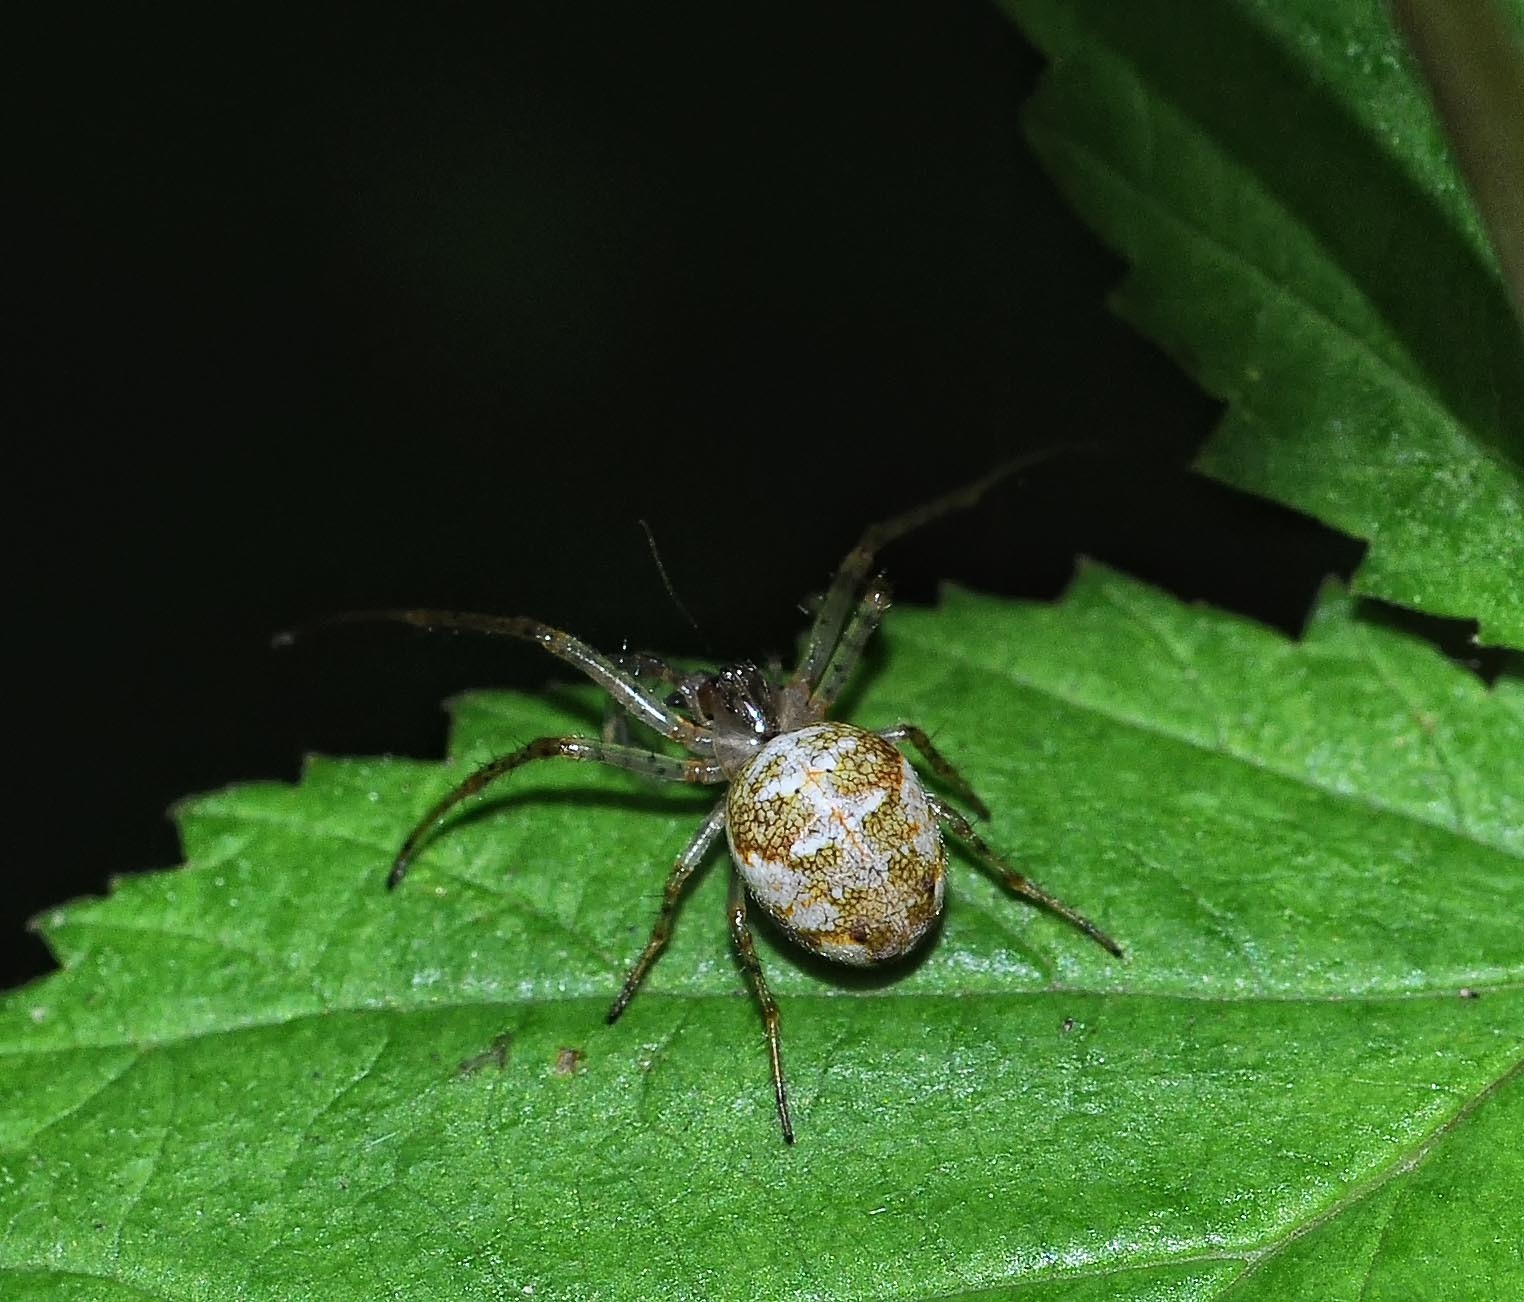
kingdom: Animalia
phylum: Arthropoda
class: Arachnida
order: Araneae
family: Tetragnathidae
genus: Metellina
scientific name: Metellina
